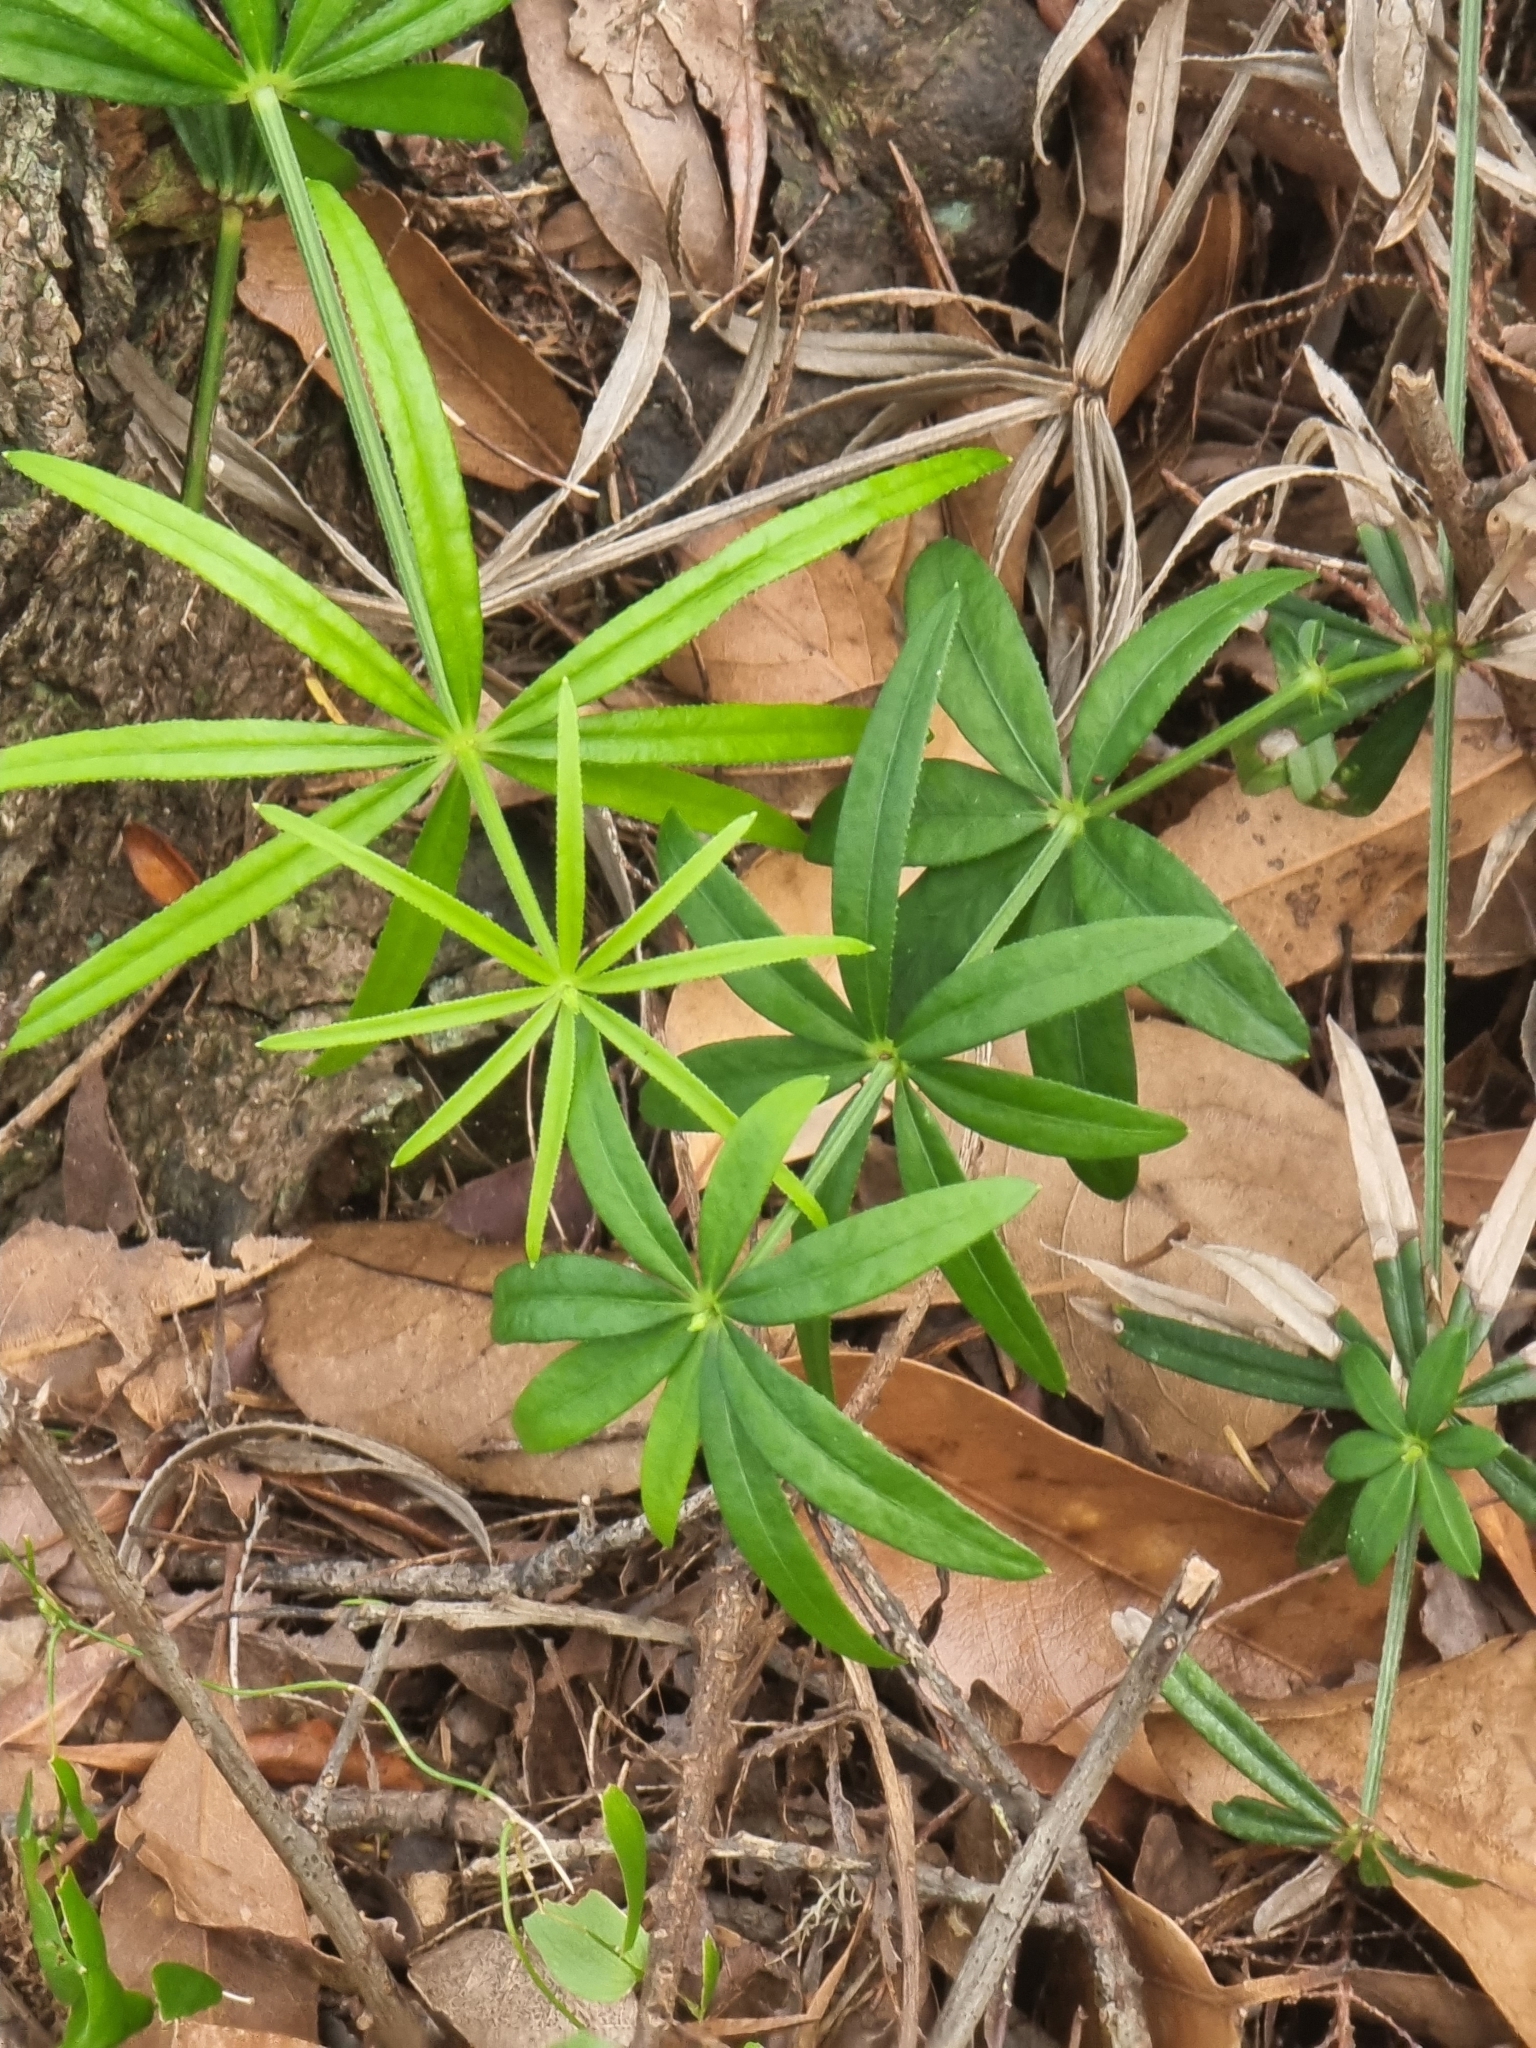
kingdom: Plantae
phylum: Tracheophyta
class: Magnoliopsida
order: Gentianales
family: Rubiaceae
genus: Rubia
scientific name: Rubia occidens
